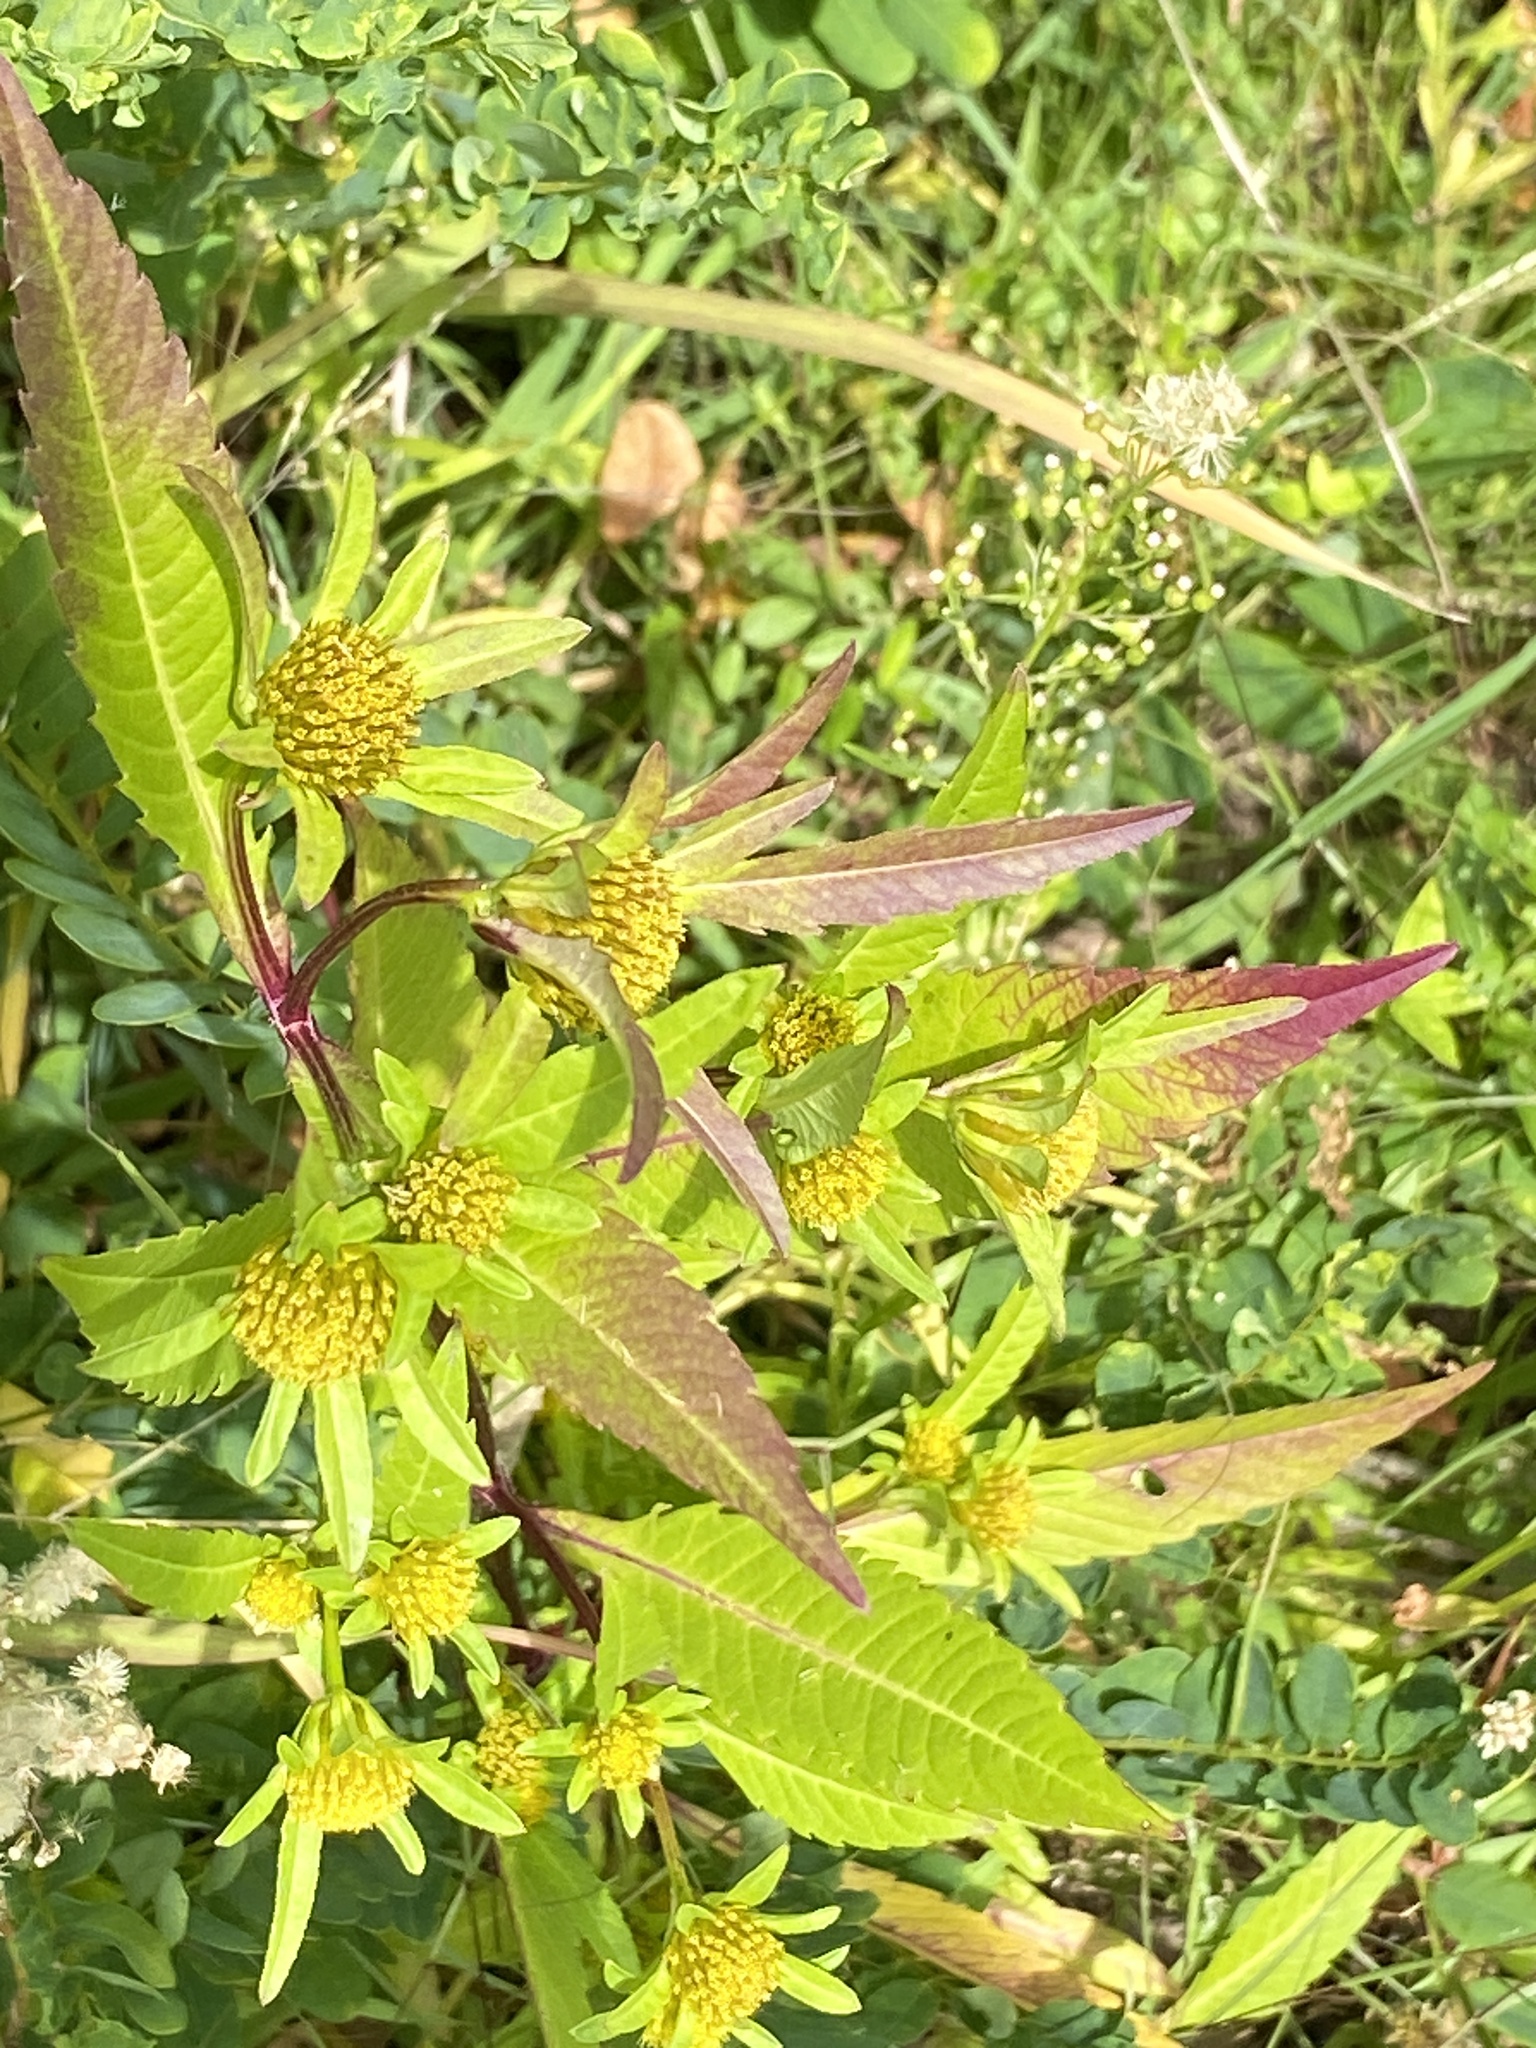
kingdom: Plantae
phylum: Tracheophyta
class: Magnoliopsida
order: Asterales
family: Asteraceae
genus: Bidens
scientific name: Bidens tripartita
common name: Trifid bur-marigold
